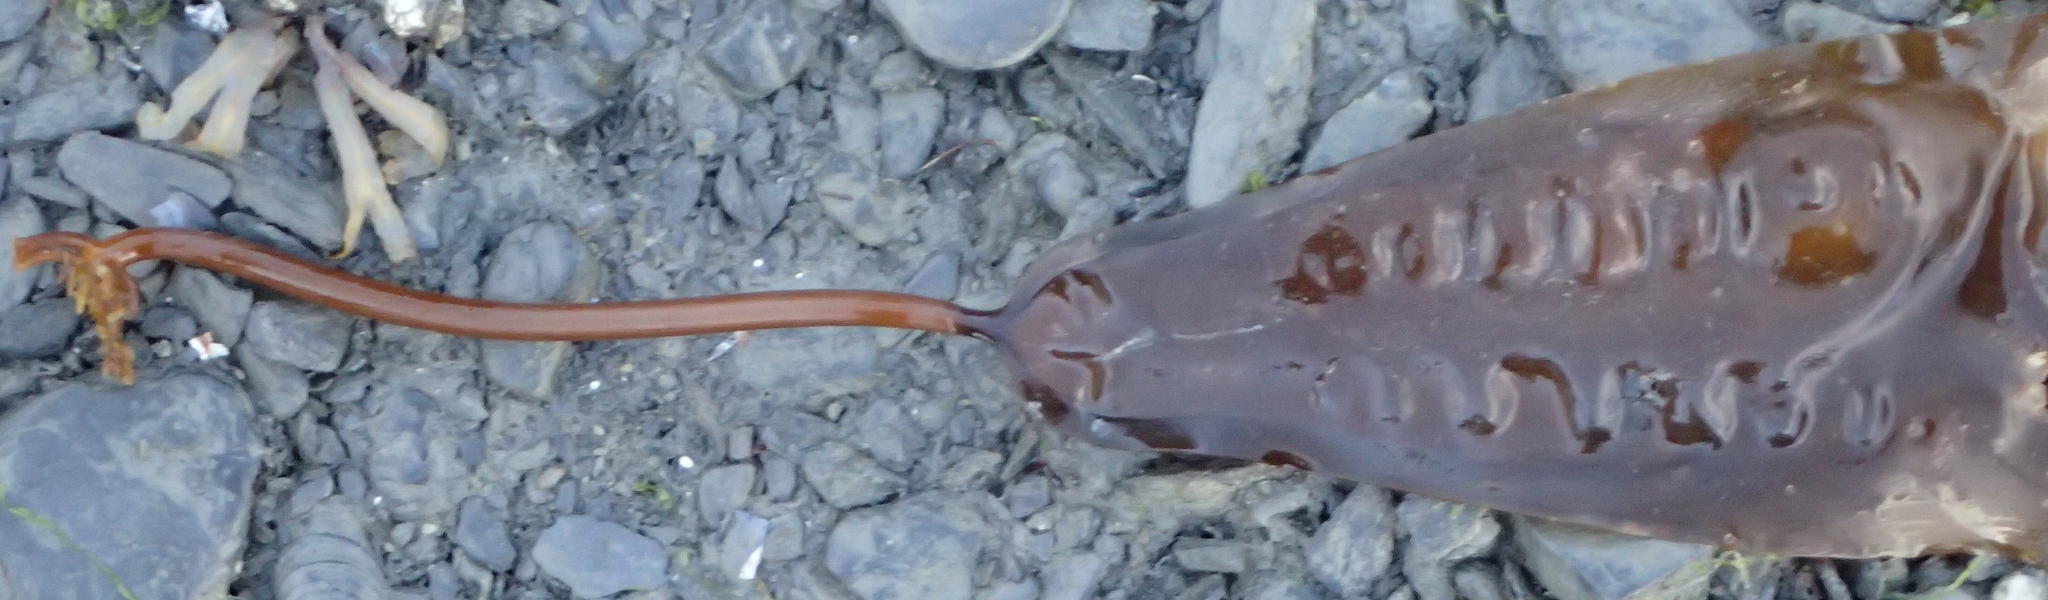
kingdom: Chromista
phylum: Ochrophyta
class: Phaeophyceae
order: Laminariales
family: Laminariaceae
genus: Saccharina
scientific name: Saccharina latissima
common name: Poor man's weather glass
